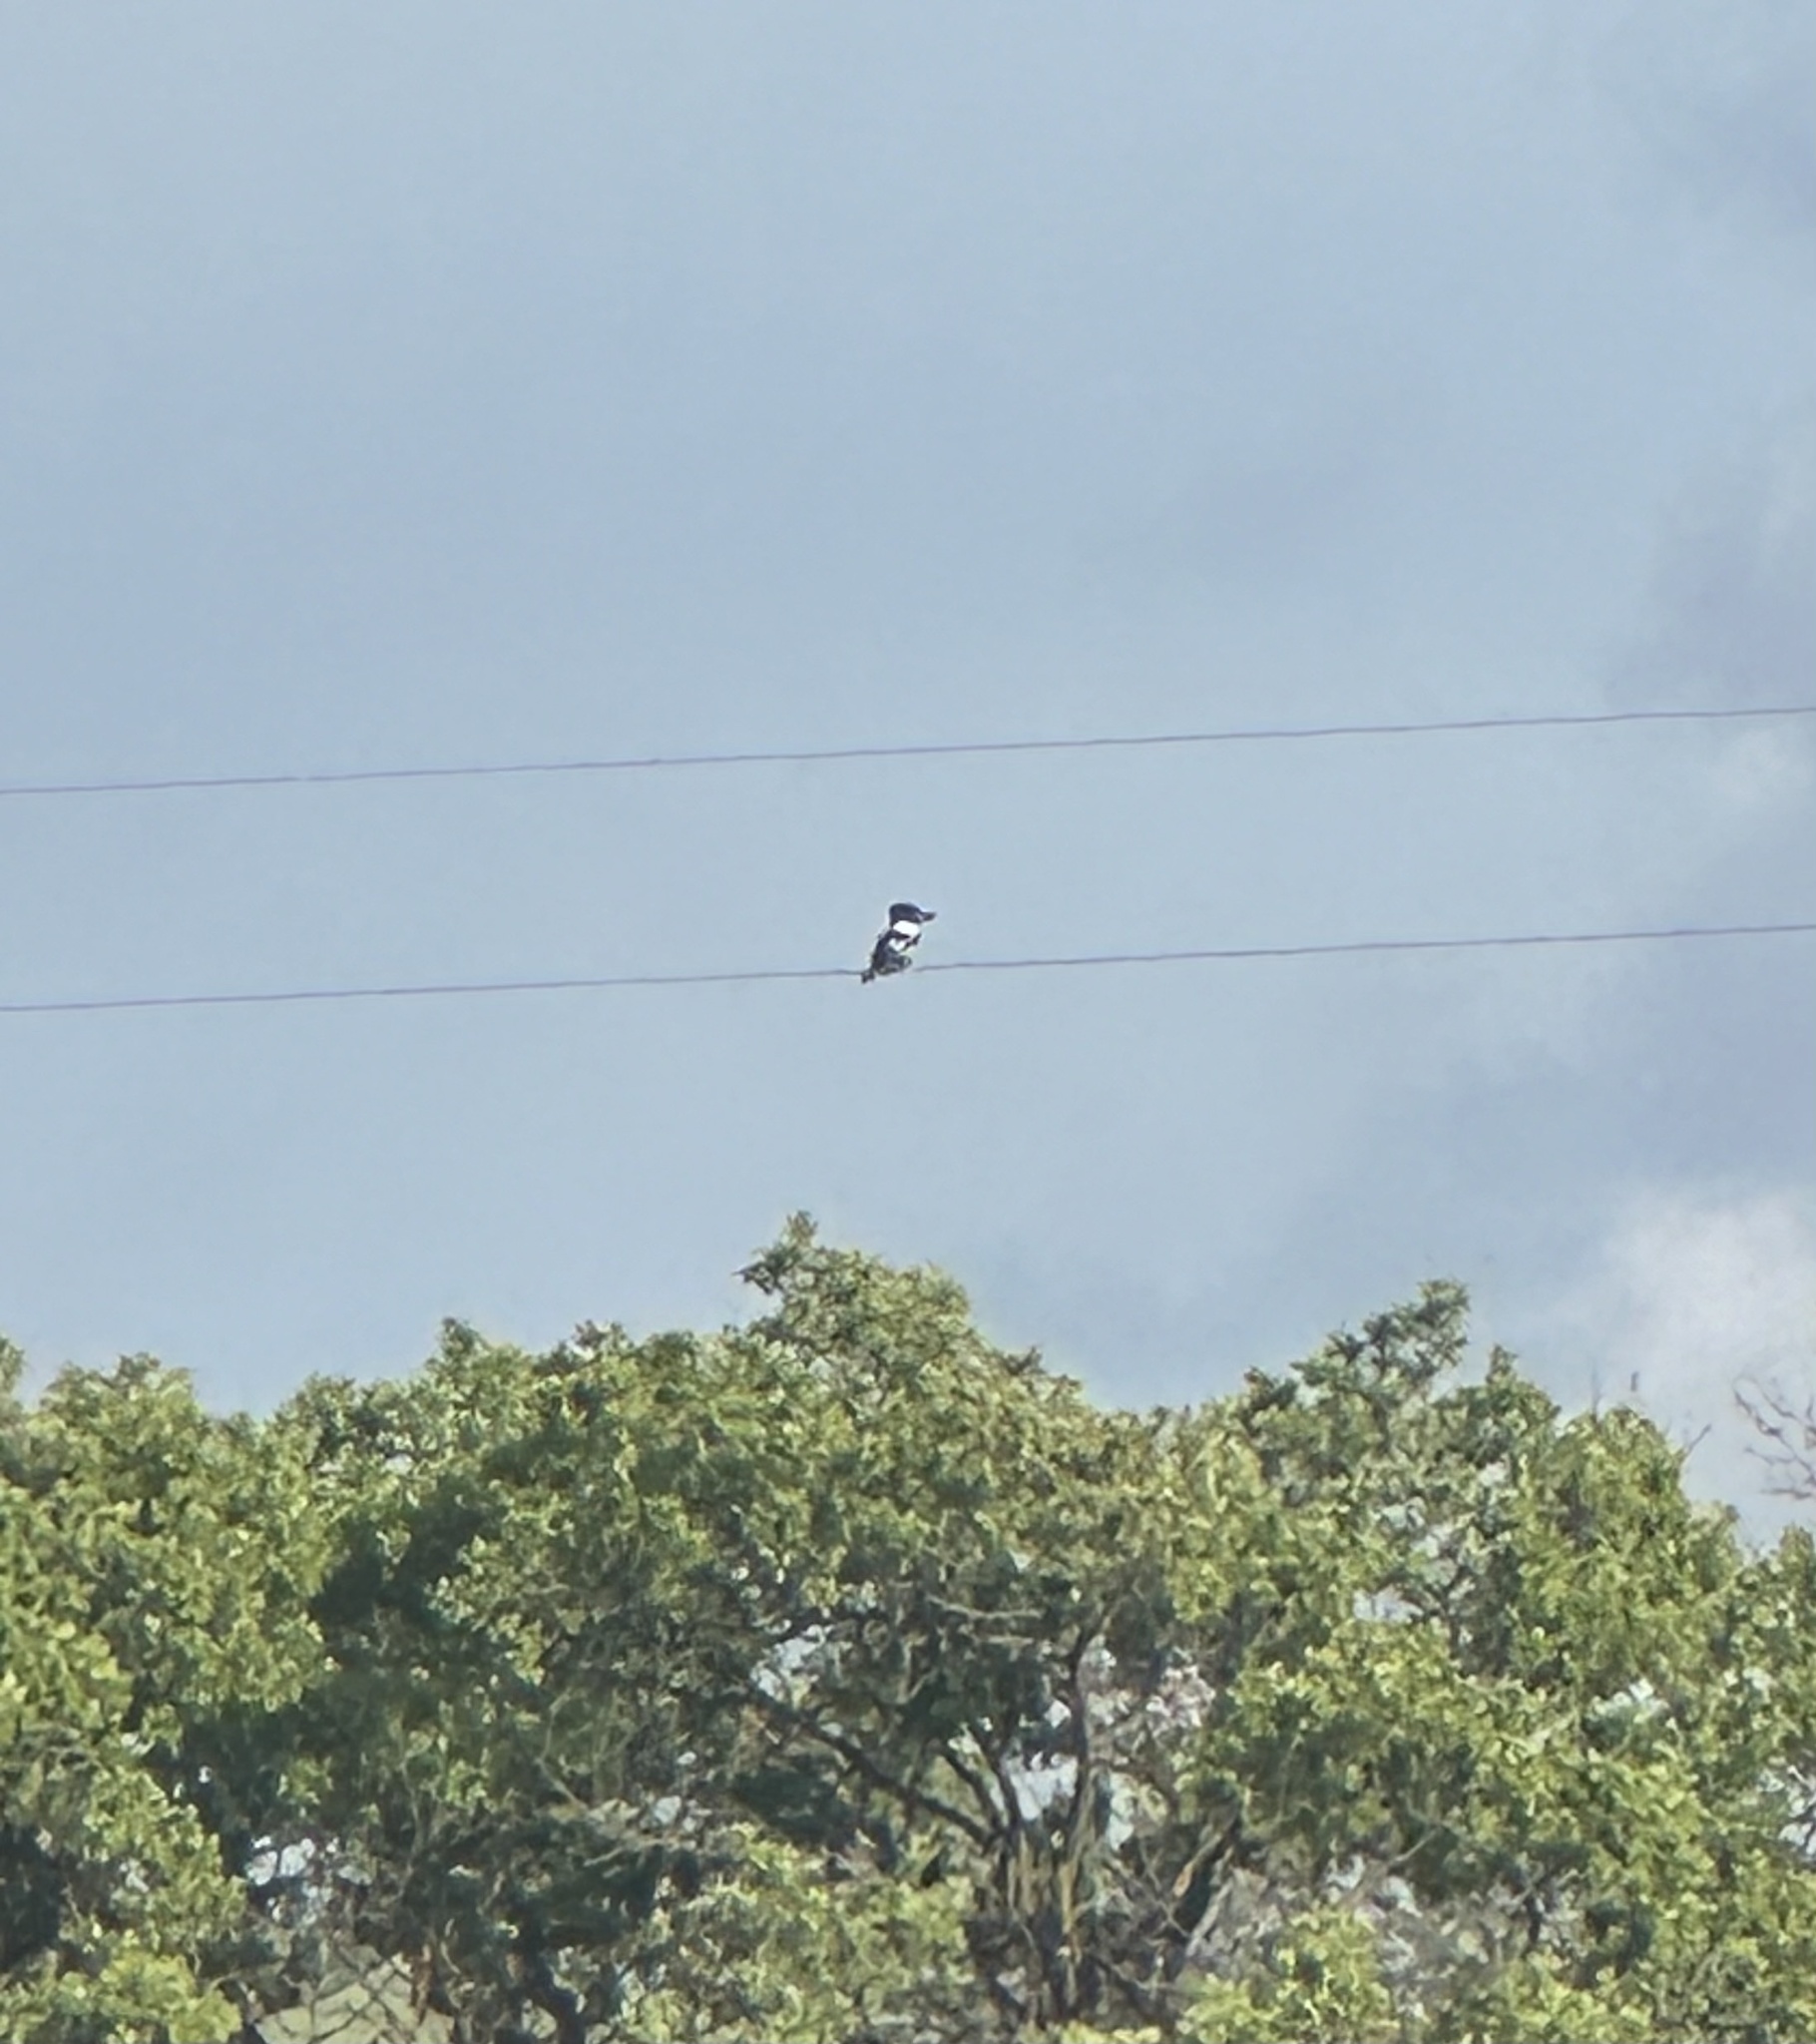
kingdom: Animalia
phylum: Chordata
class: Aves
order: Coraciiformes
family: Alcedinidae
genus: Megaceryle
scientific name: Megaceryle alcyon
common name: Belted kingfisher
